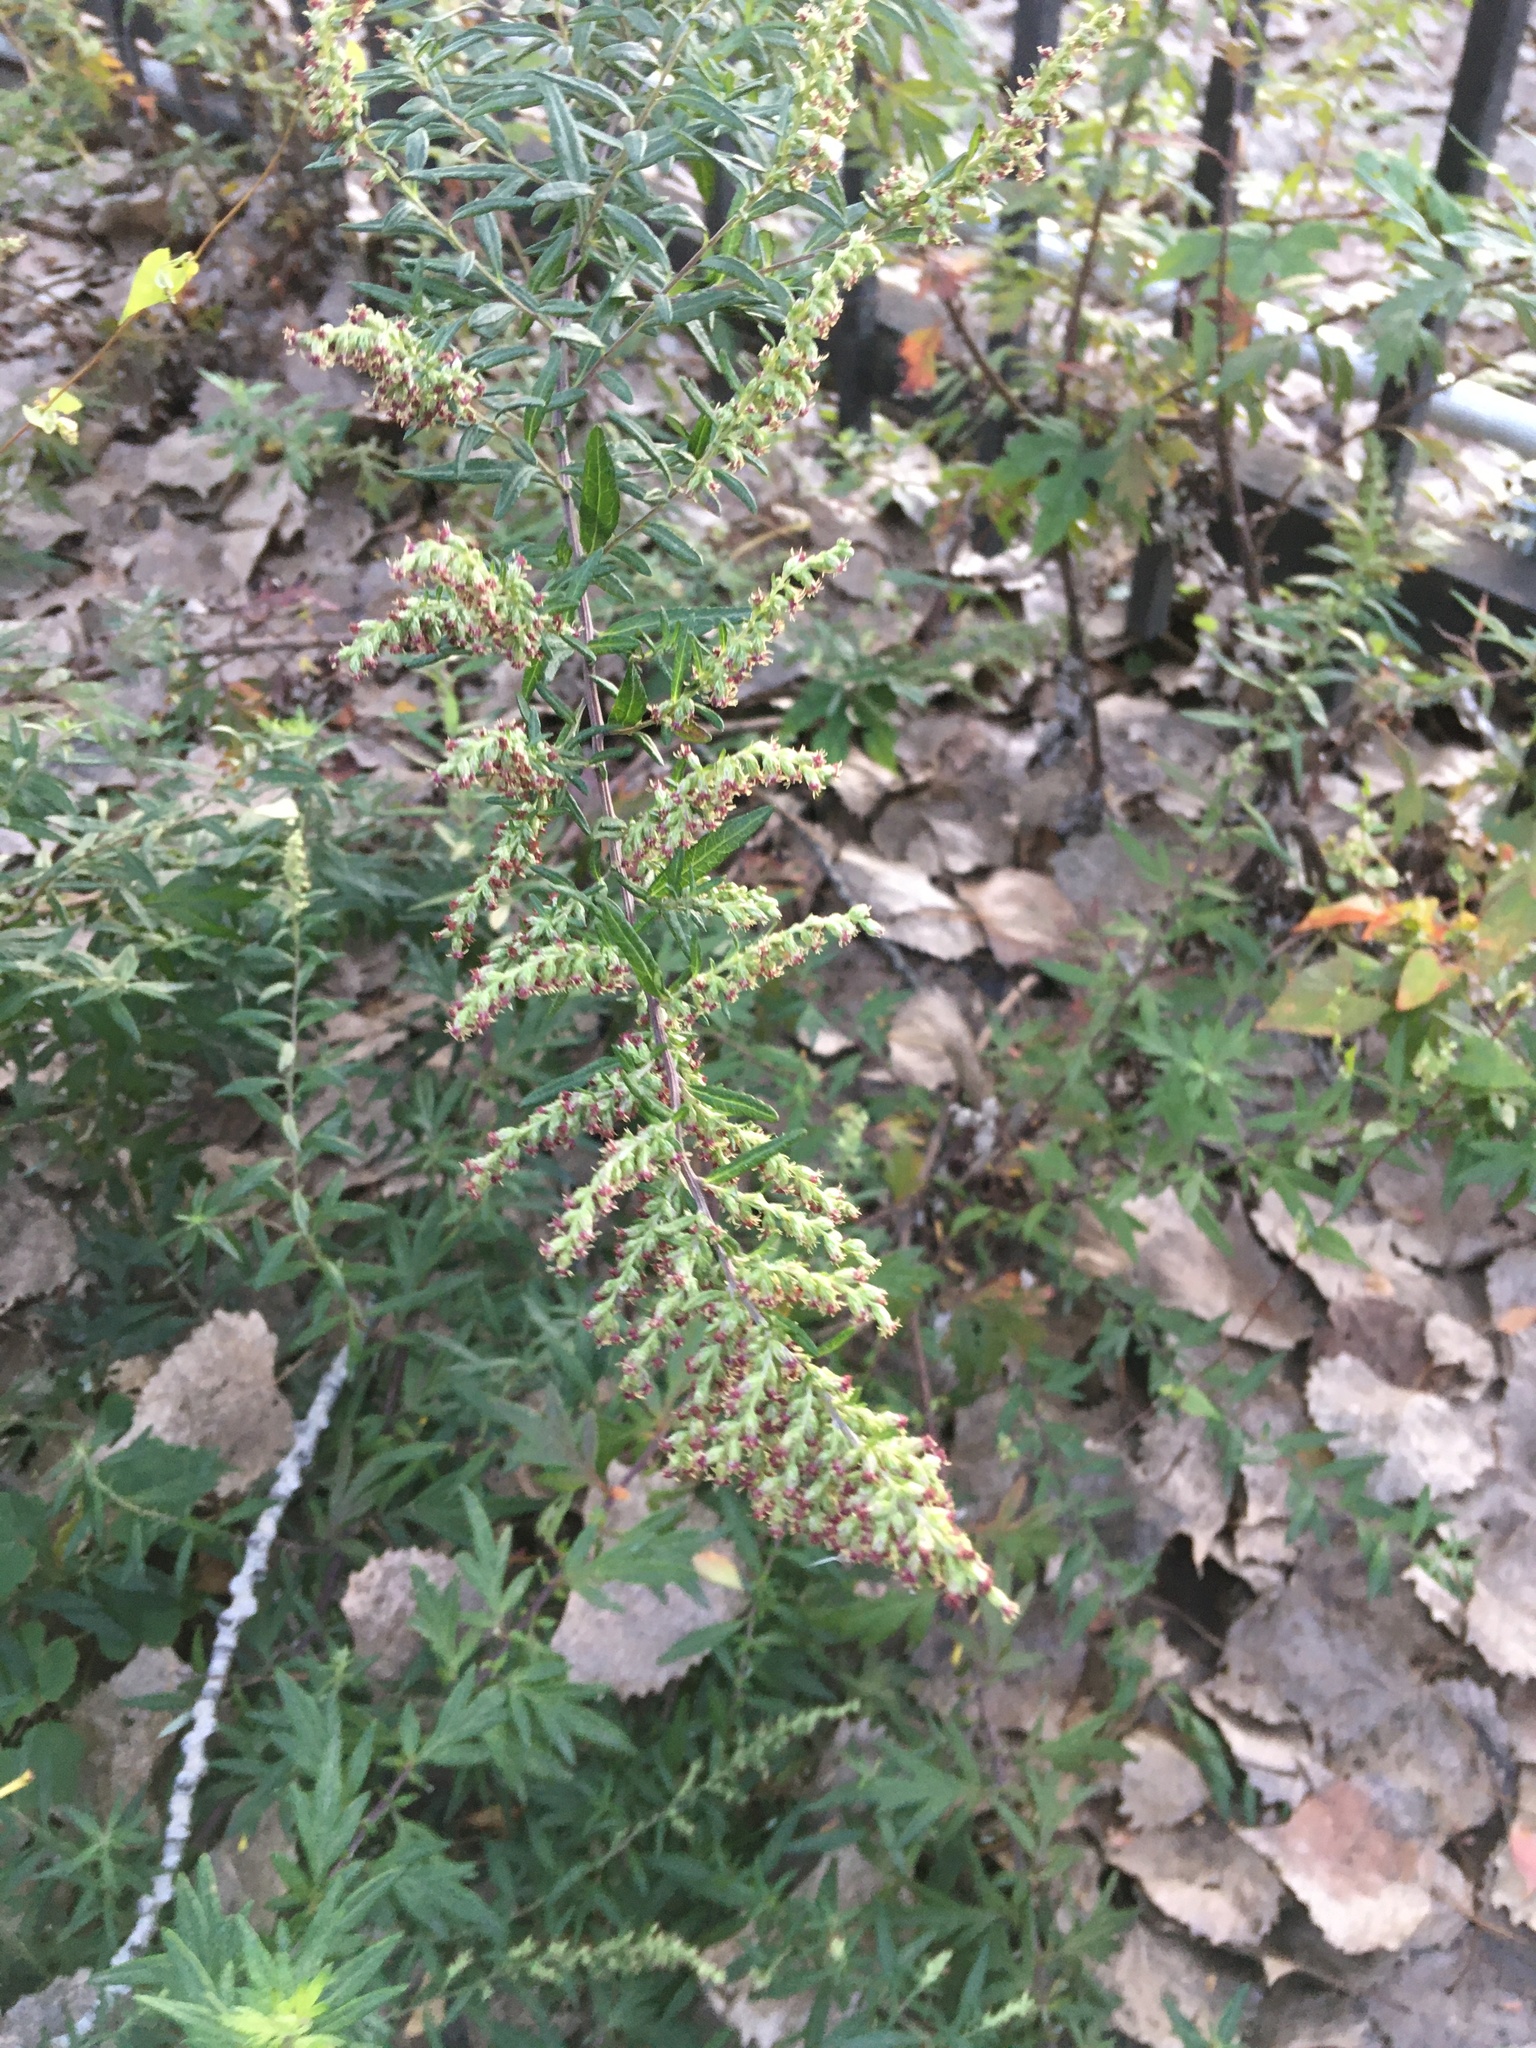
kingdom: Plantae
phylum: Tracheophyta
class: Magnoliopsida
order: Asterales
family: Asteraceae
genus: Artemisia
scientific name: Artemisia vulgaris
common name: Mugwort
